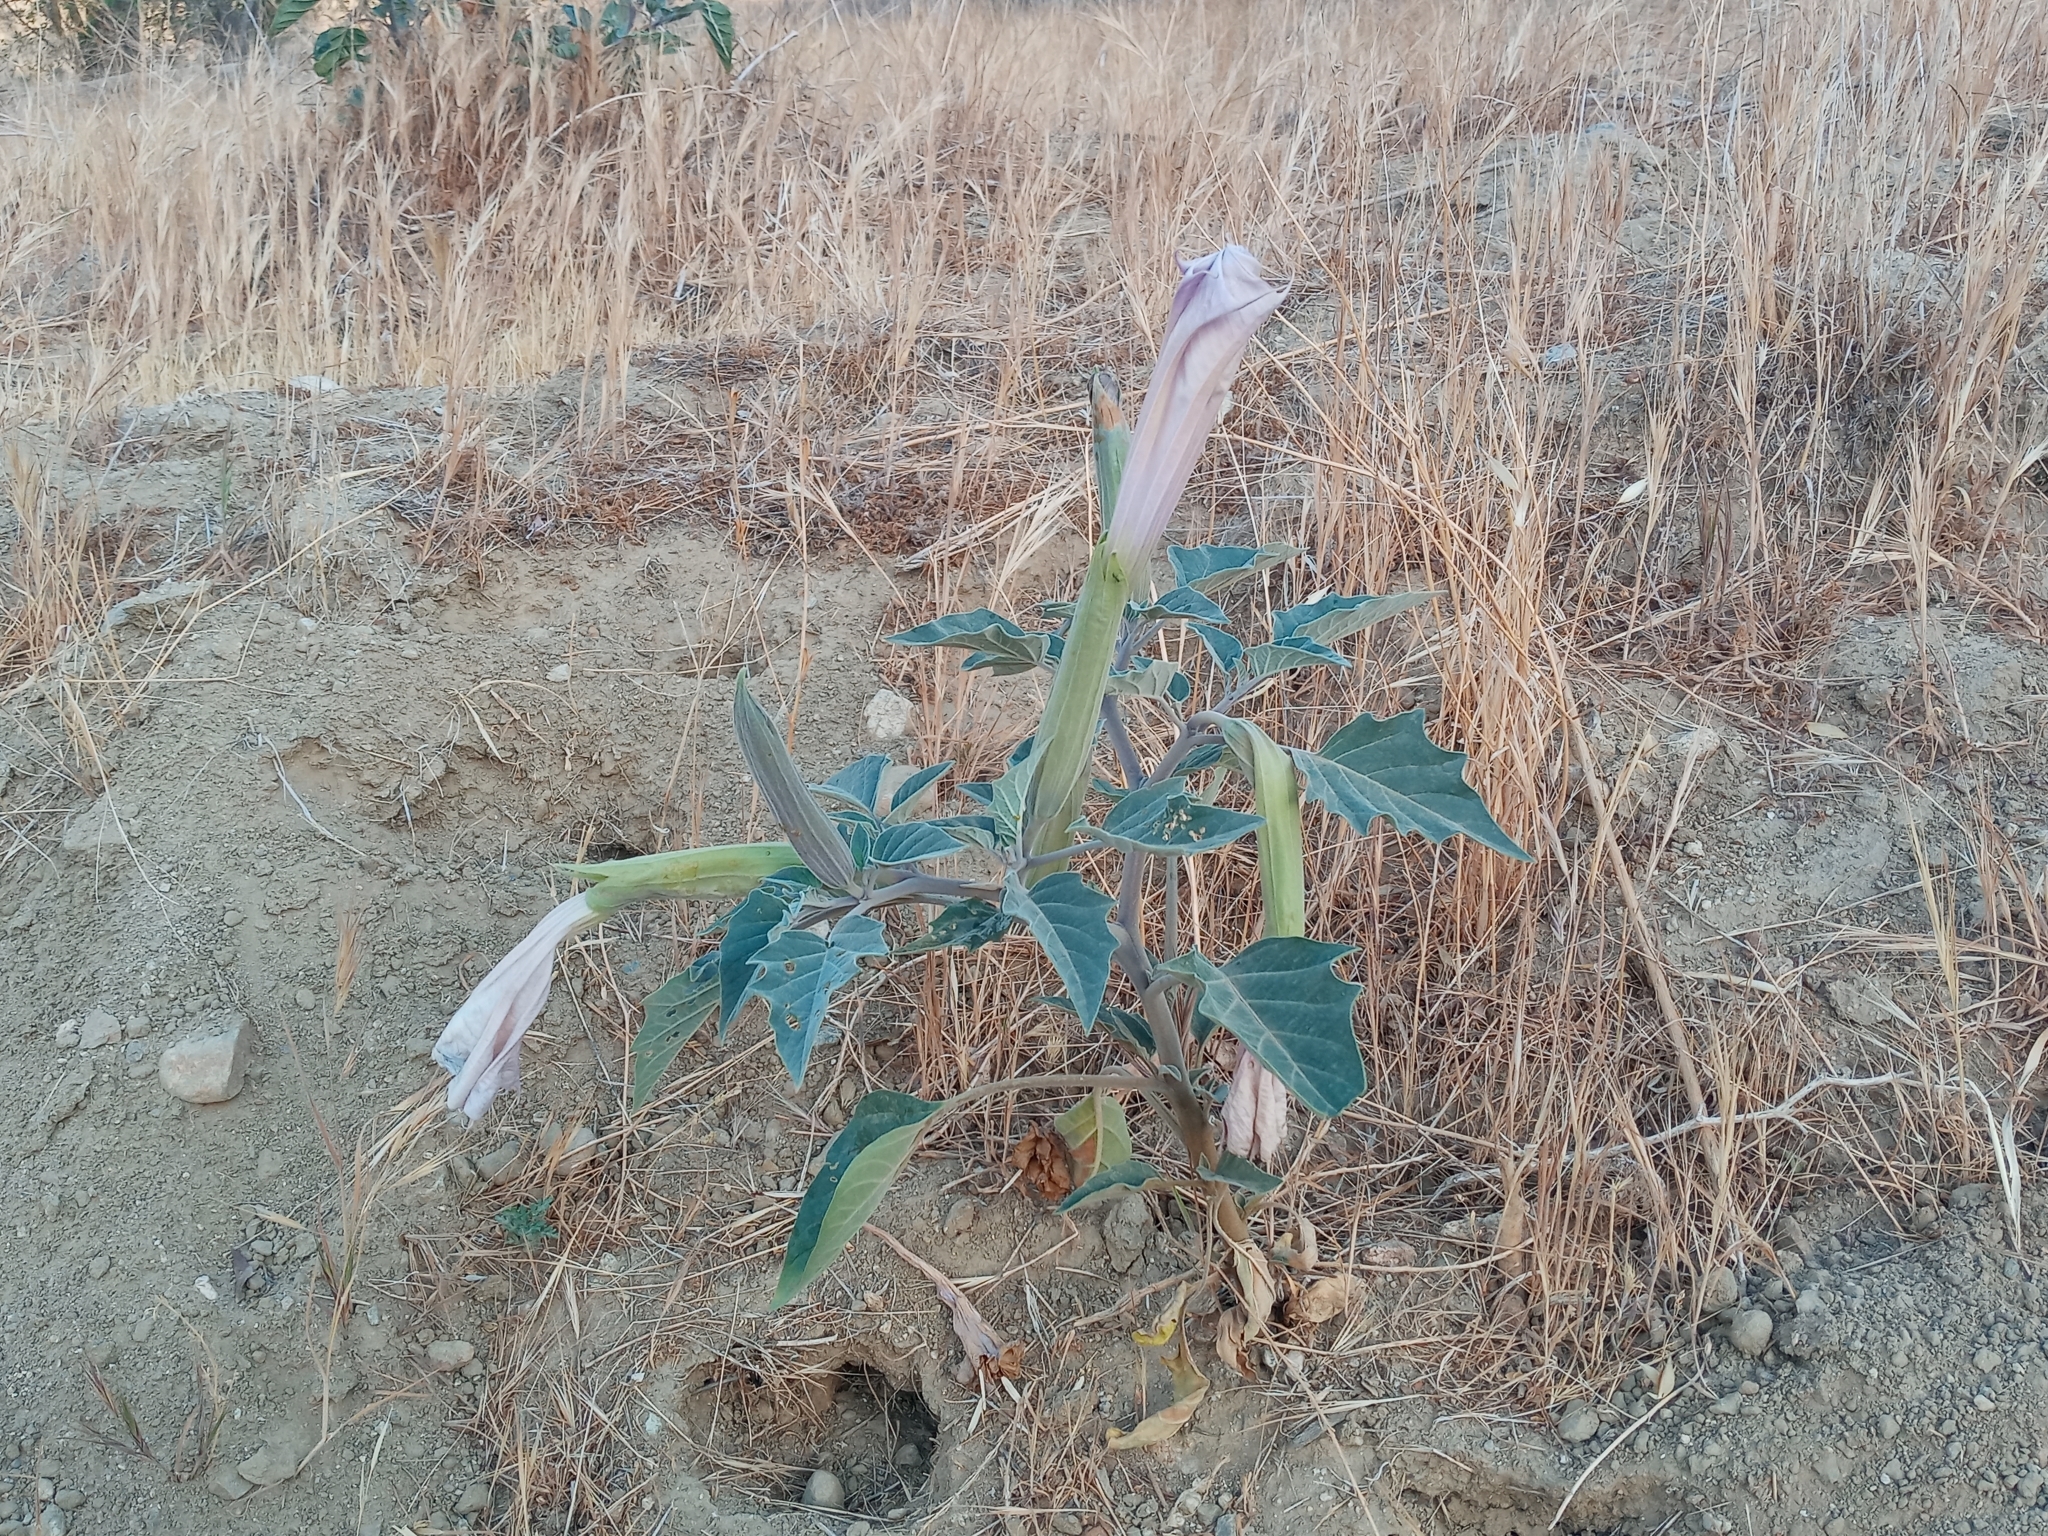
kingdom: Plantae
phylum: Tracheophyta
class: Magnoliopsida
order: Solanales
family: Solanaceae
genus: Datura
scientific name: Datura wrightii
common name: Sacred thorn-apple
